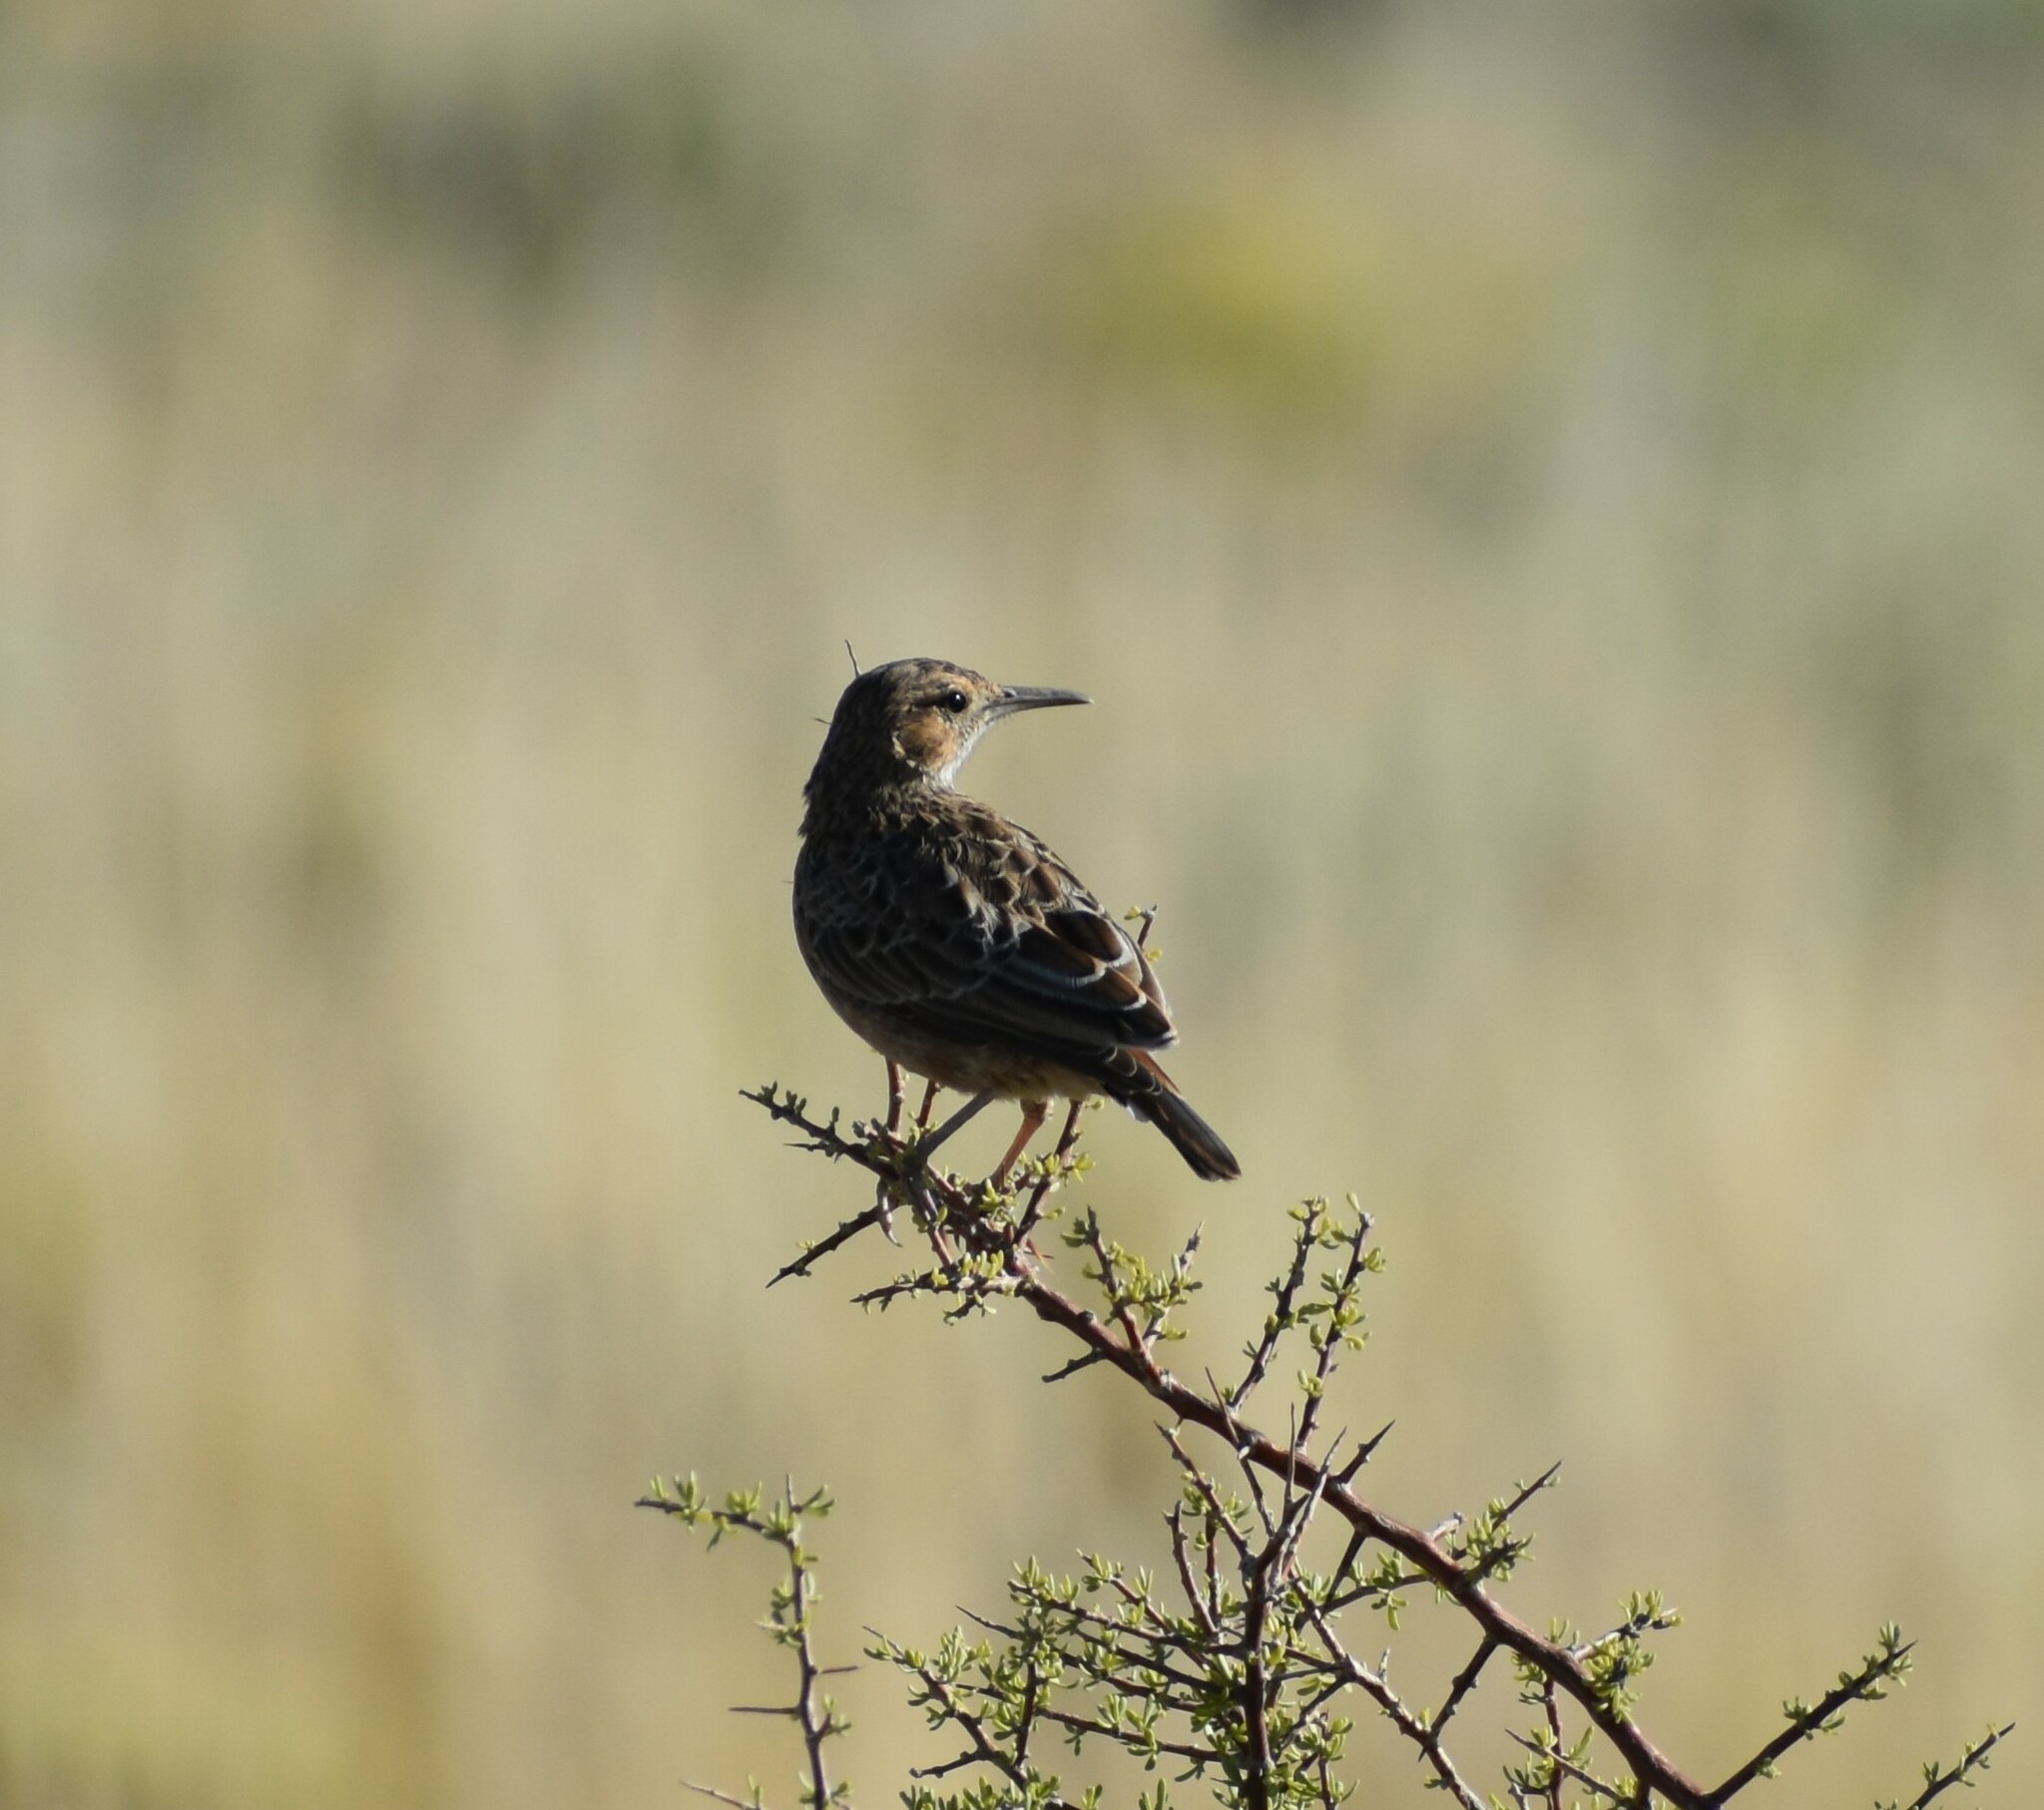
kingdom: Animalia
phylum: Chordata
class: Aves
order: Passeriformes
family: Alaudidae
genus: Chersomanes
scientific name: Chersomanes albofasciata
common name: Spike-heeled lark
